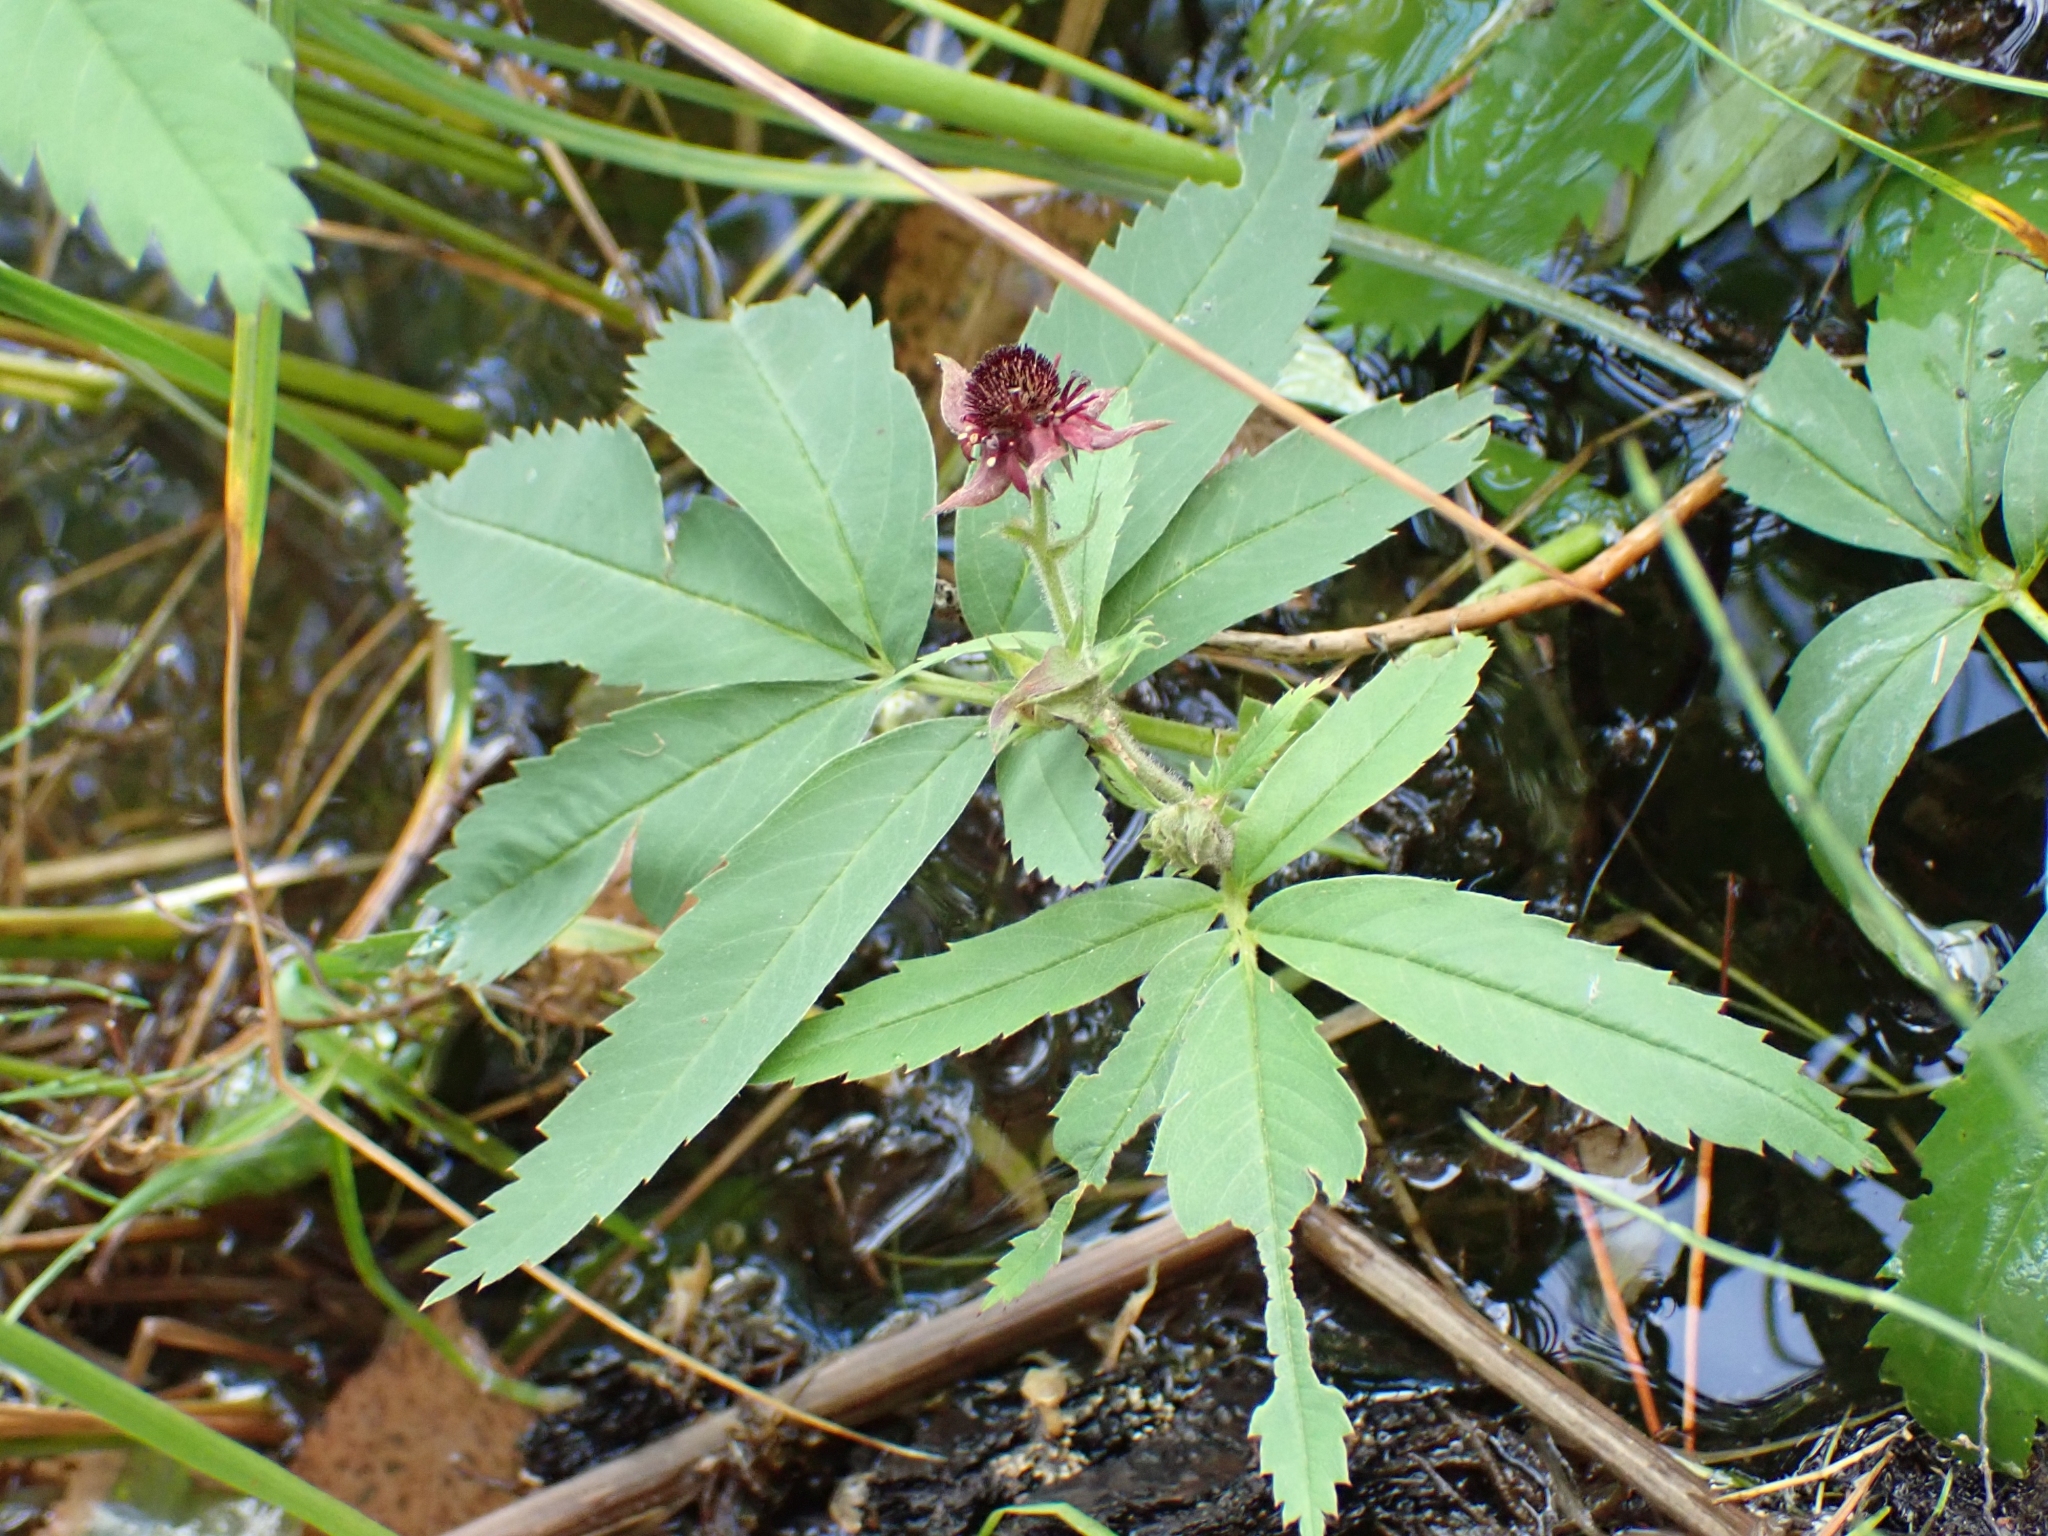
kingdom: Plantae
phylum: Tracheophyta
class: Magnoliopsida
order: Rosales
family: Rosaceae
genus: Comarum
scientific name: Comarum palustre
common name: Marsh cinquefoil
